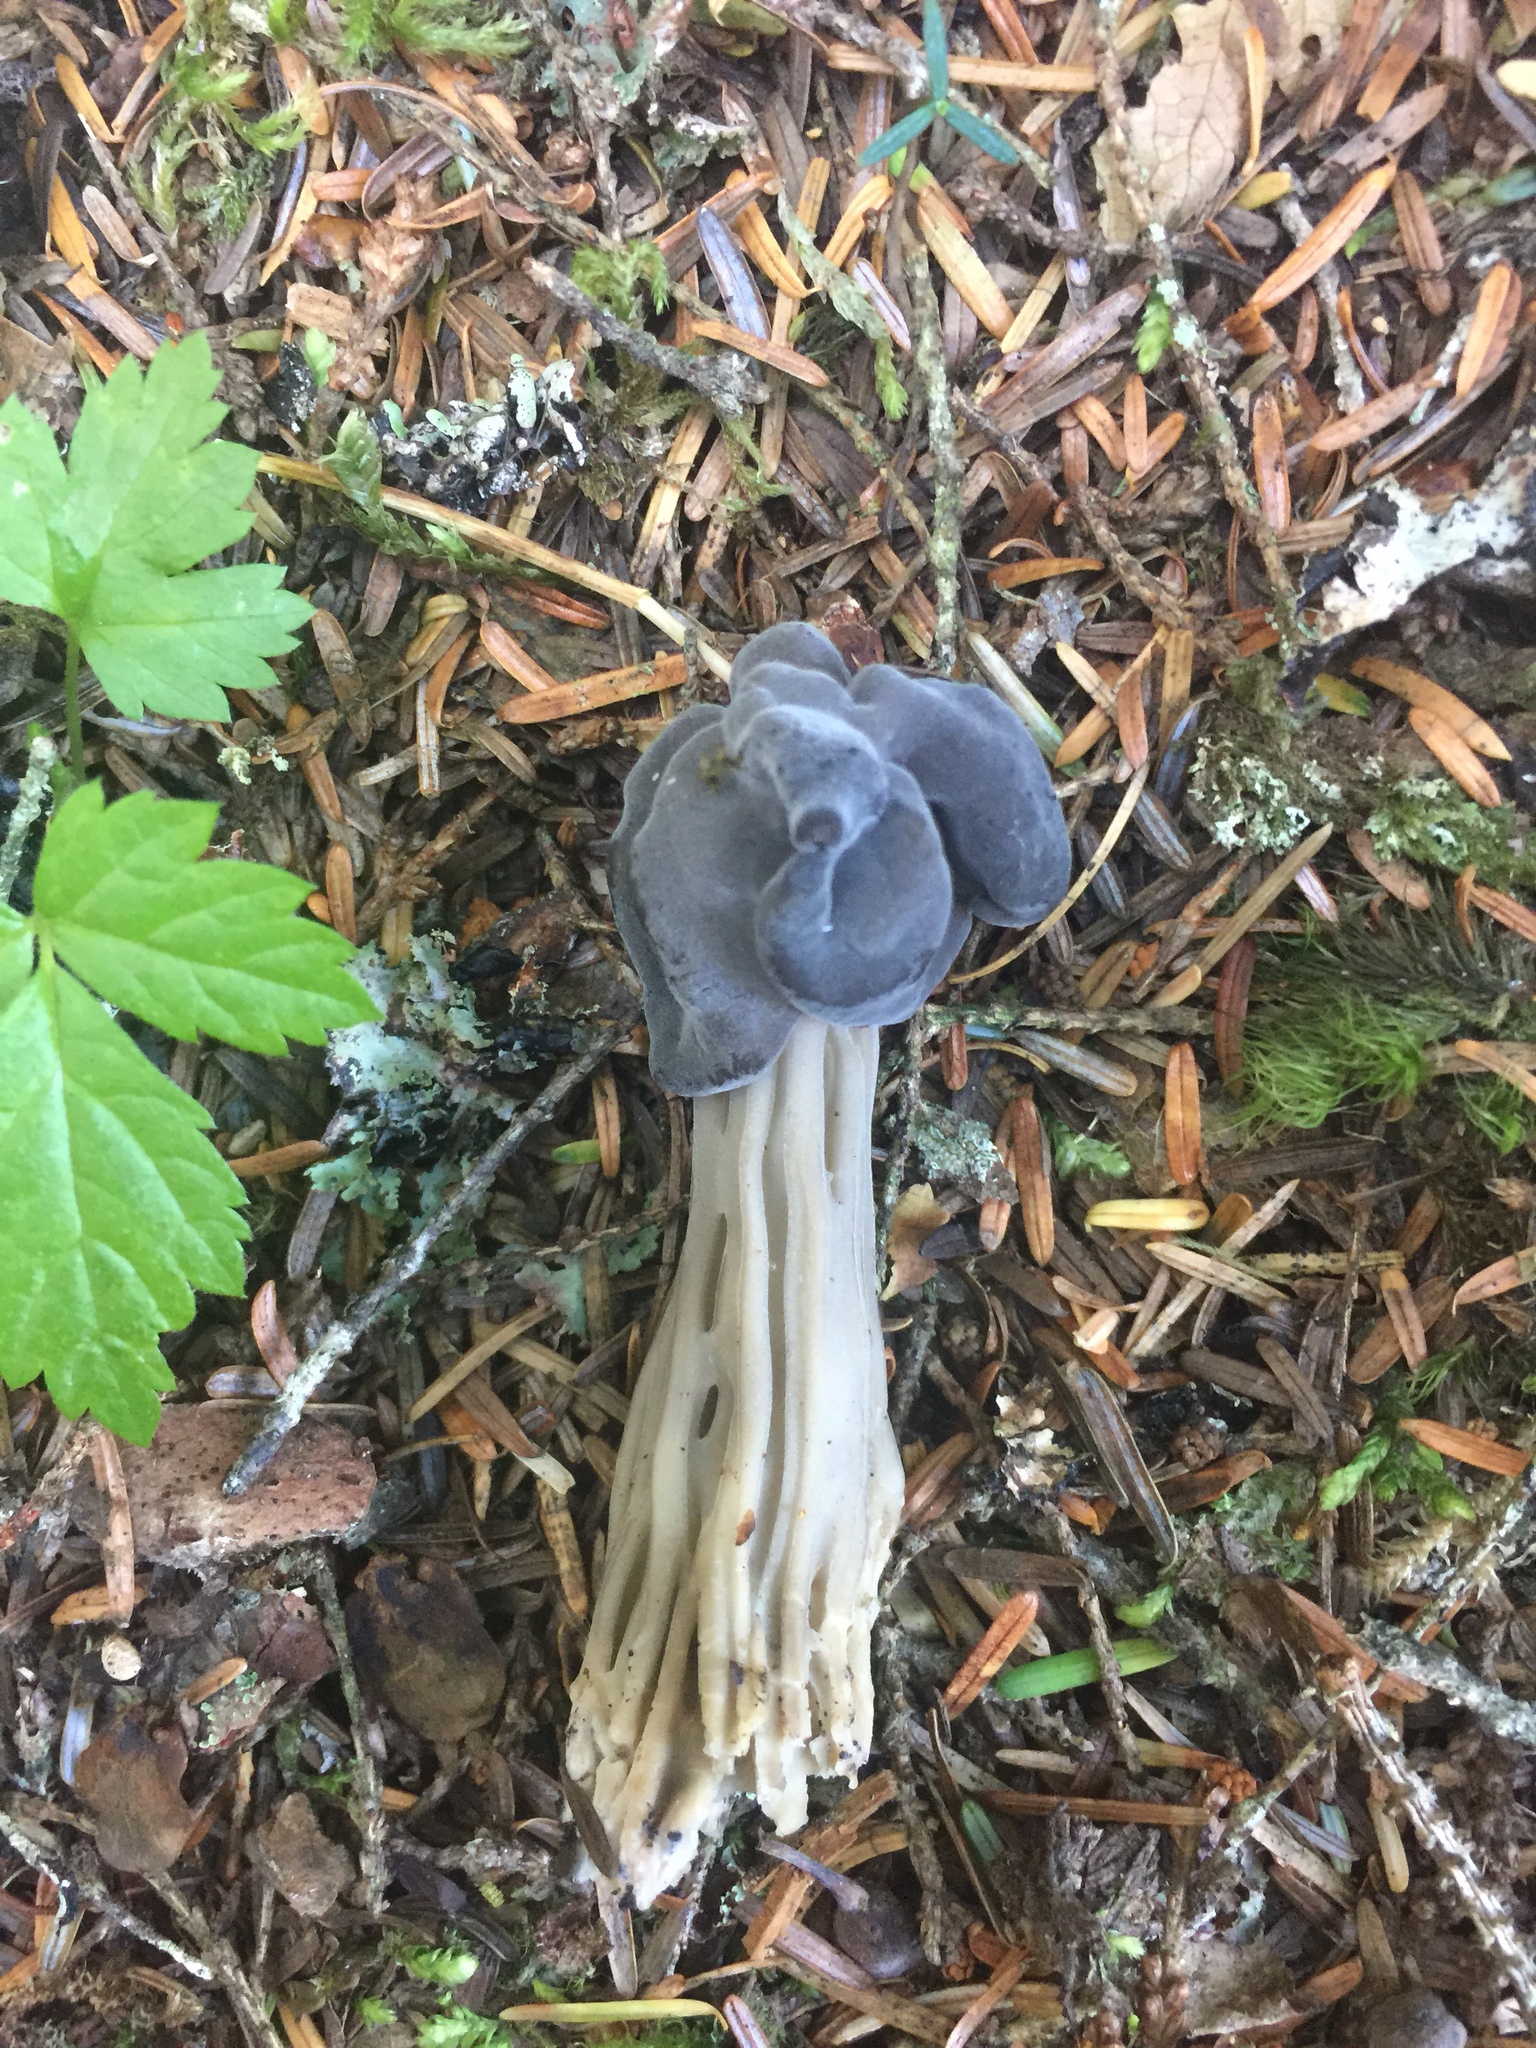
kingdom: Fungi
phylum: Ascomycota
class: Pezizomycetes
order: Pezizales
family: Helvellaceae
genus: Helvella
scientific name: Helvella vespertina
